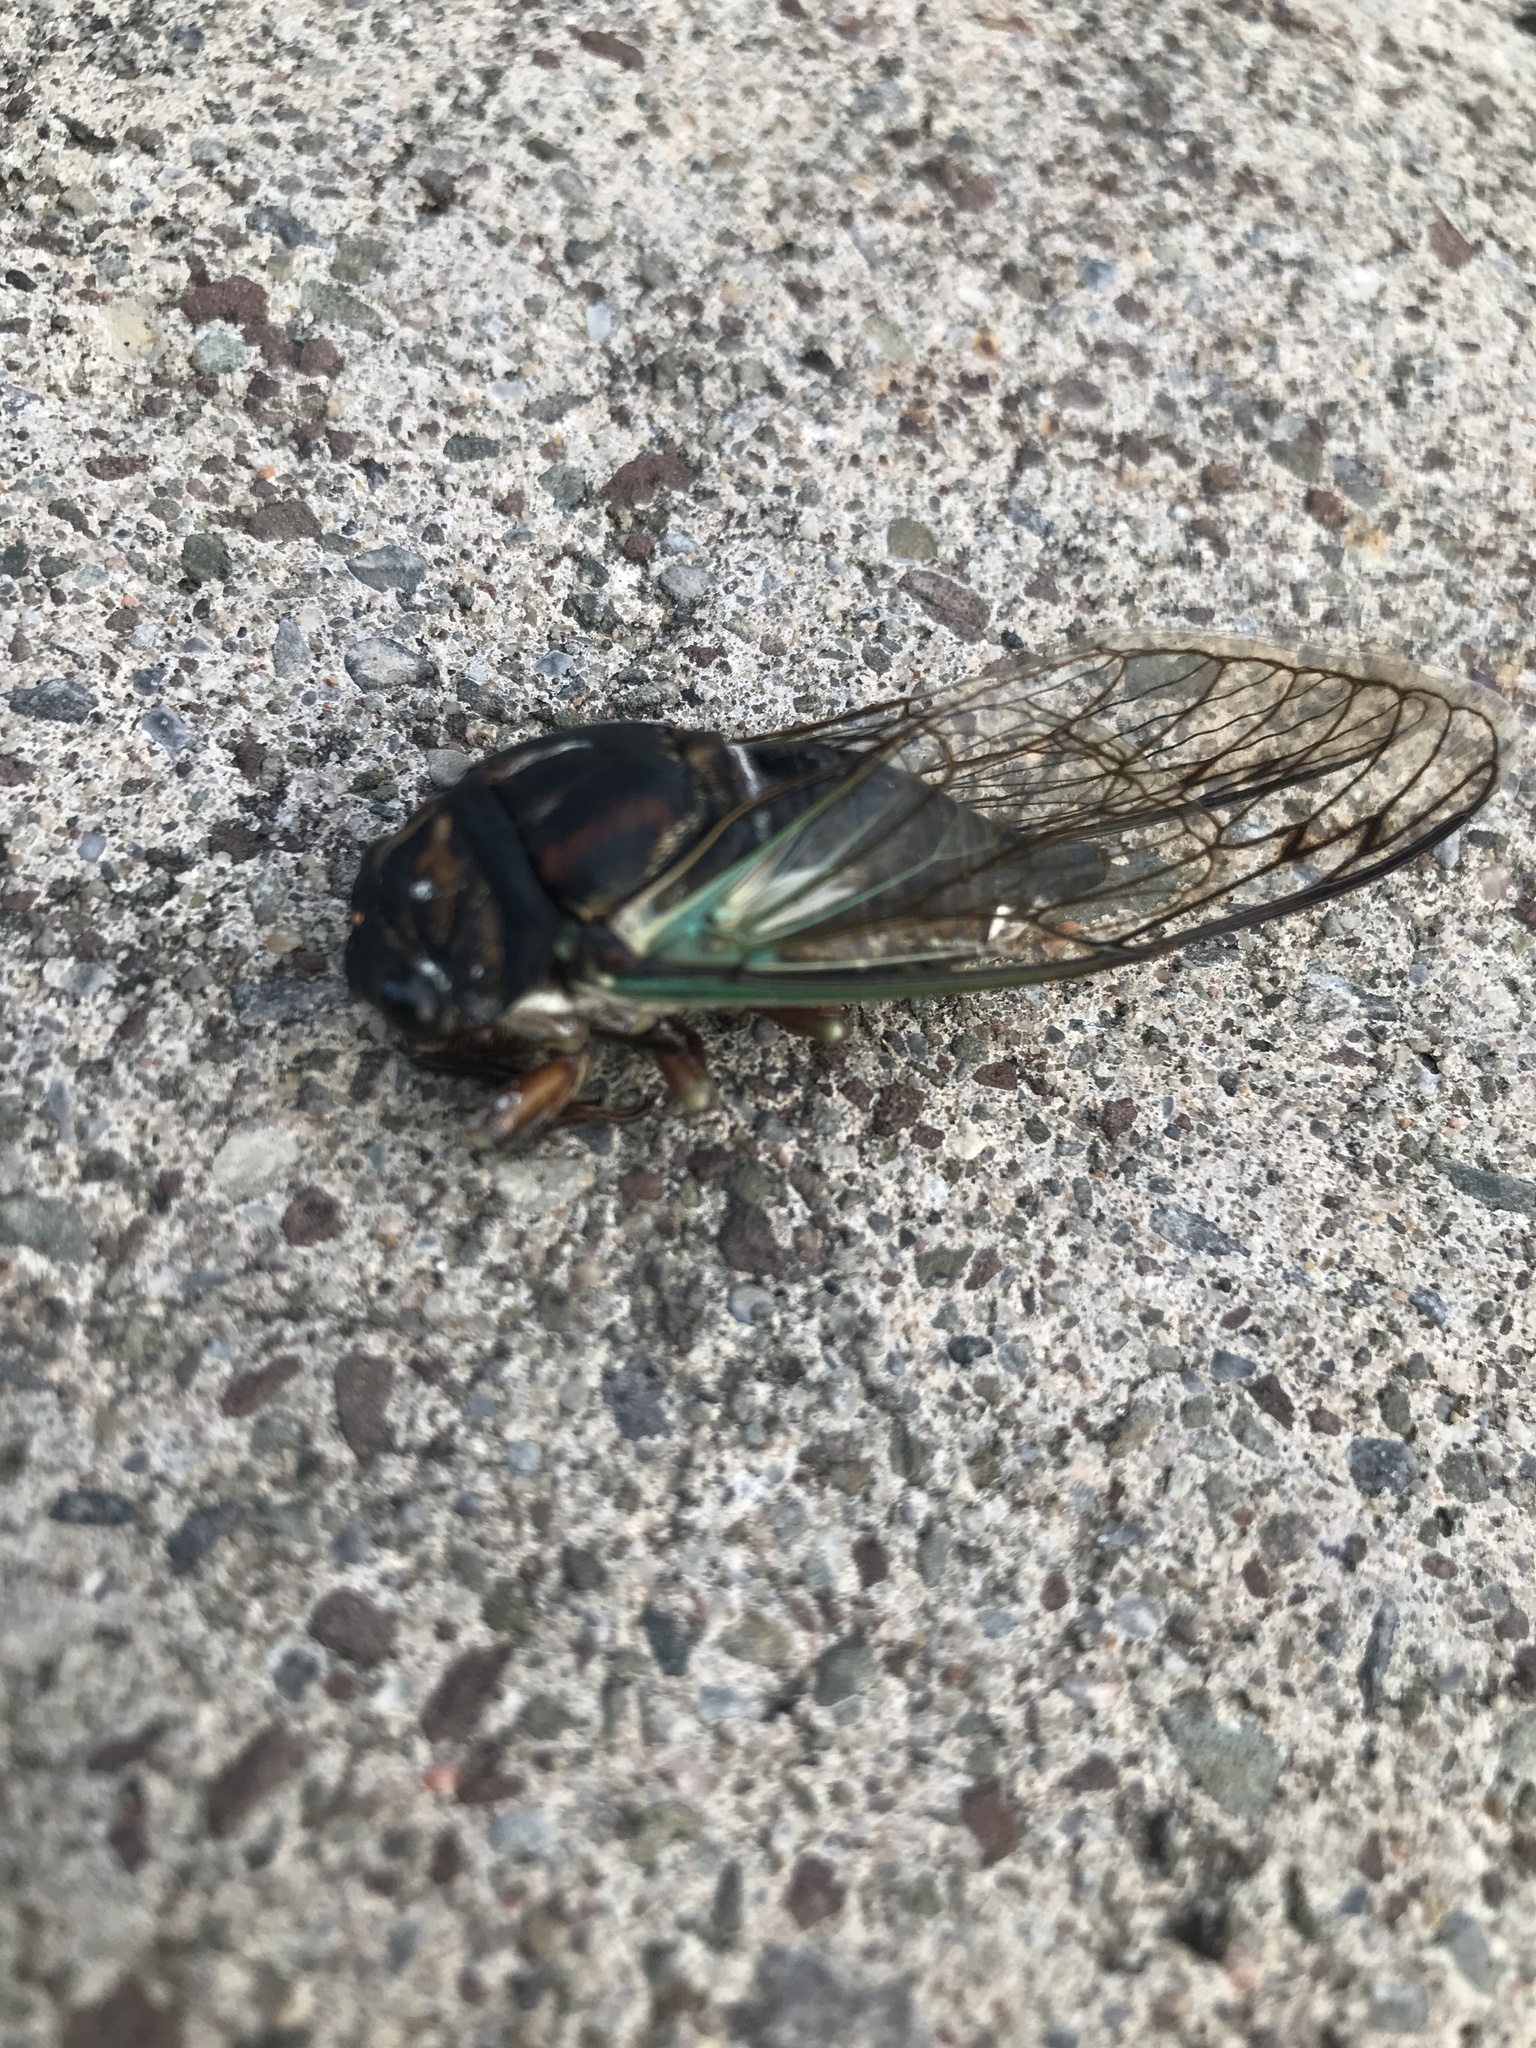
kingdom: Animalia
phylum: Arthropoda
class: Insecta
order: Hemiptera
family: Cicadidae
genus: Neotibicen
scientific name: Neotibicen lyricen
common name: Lyric cicada
